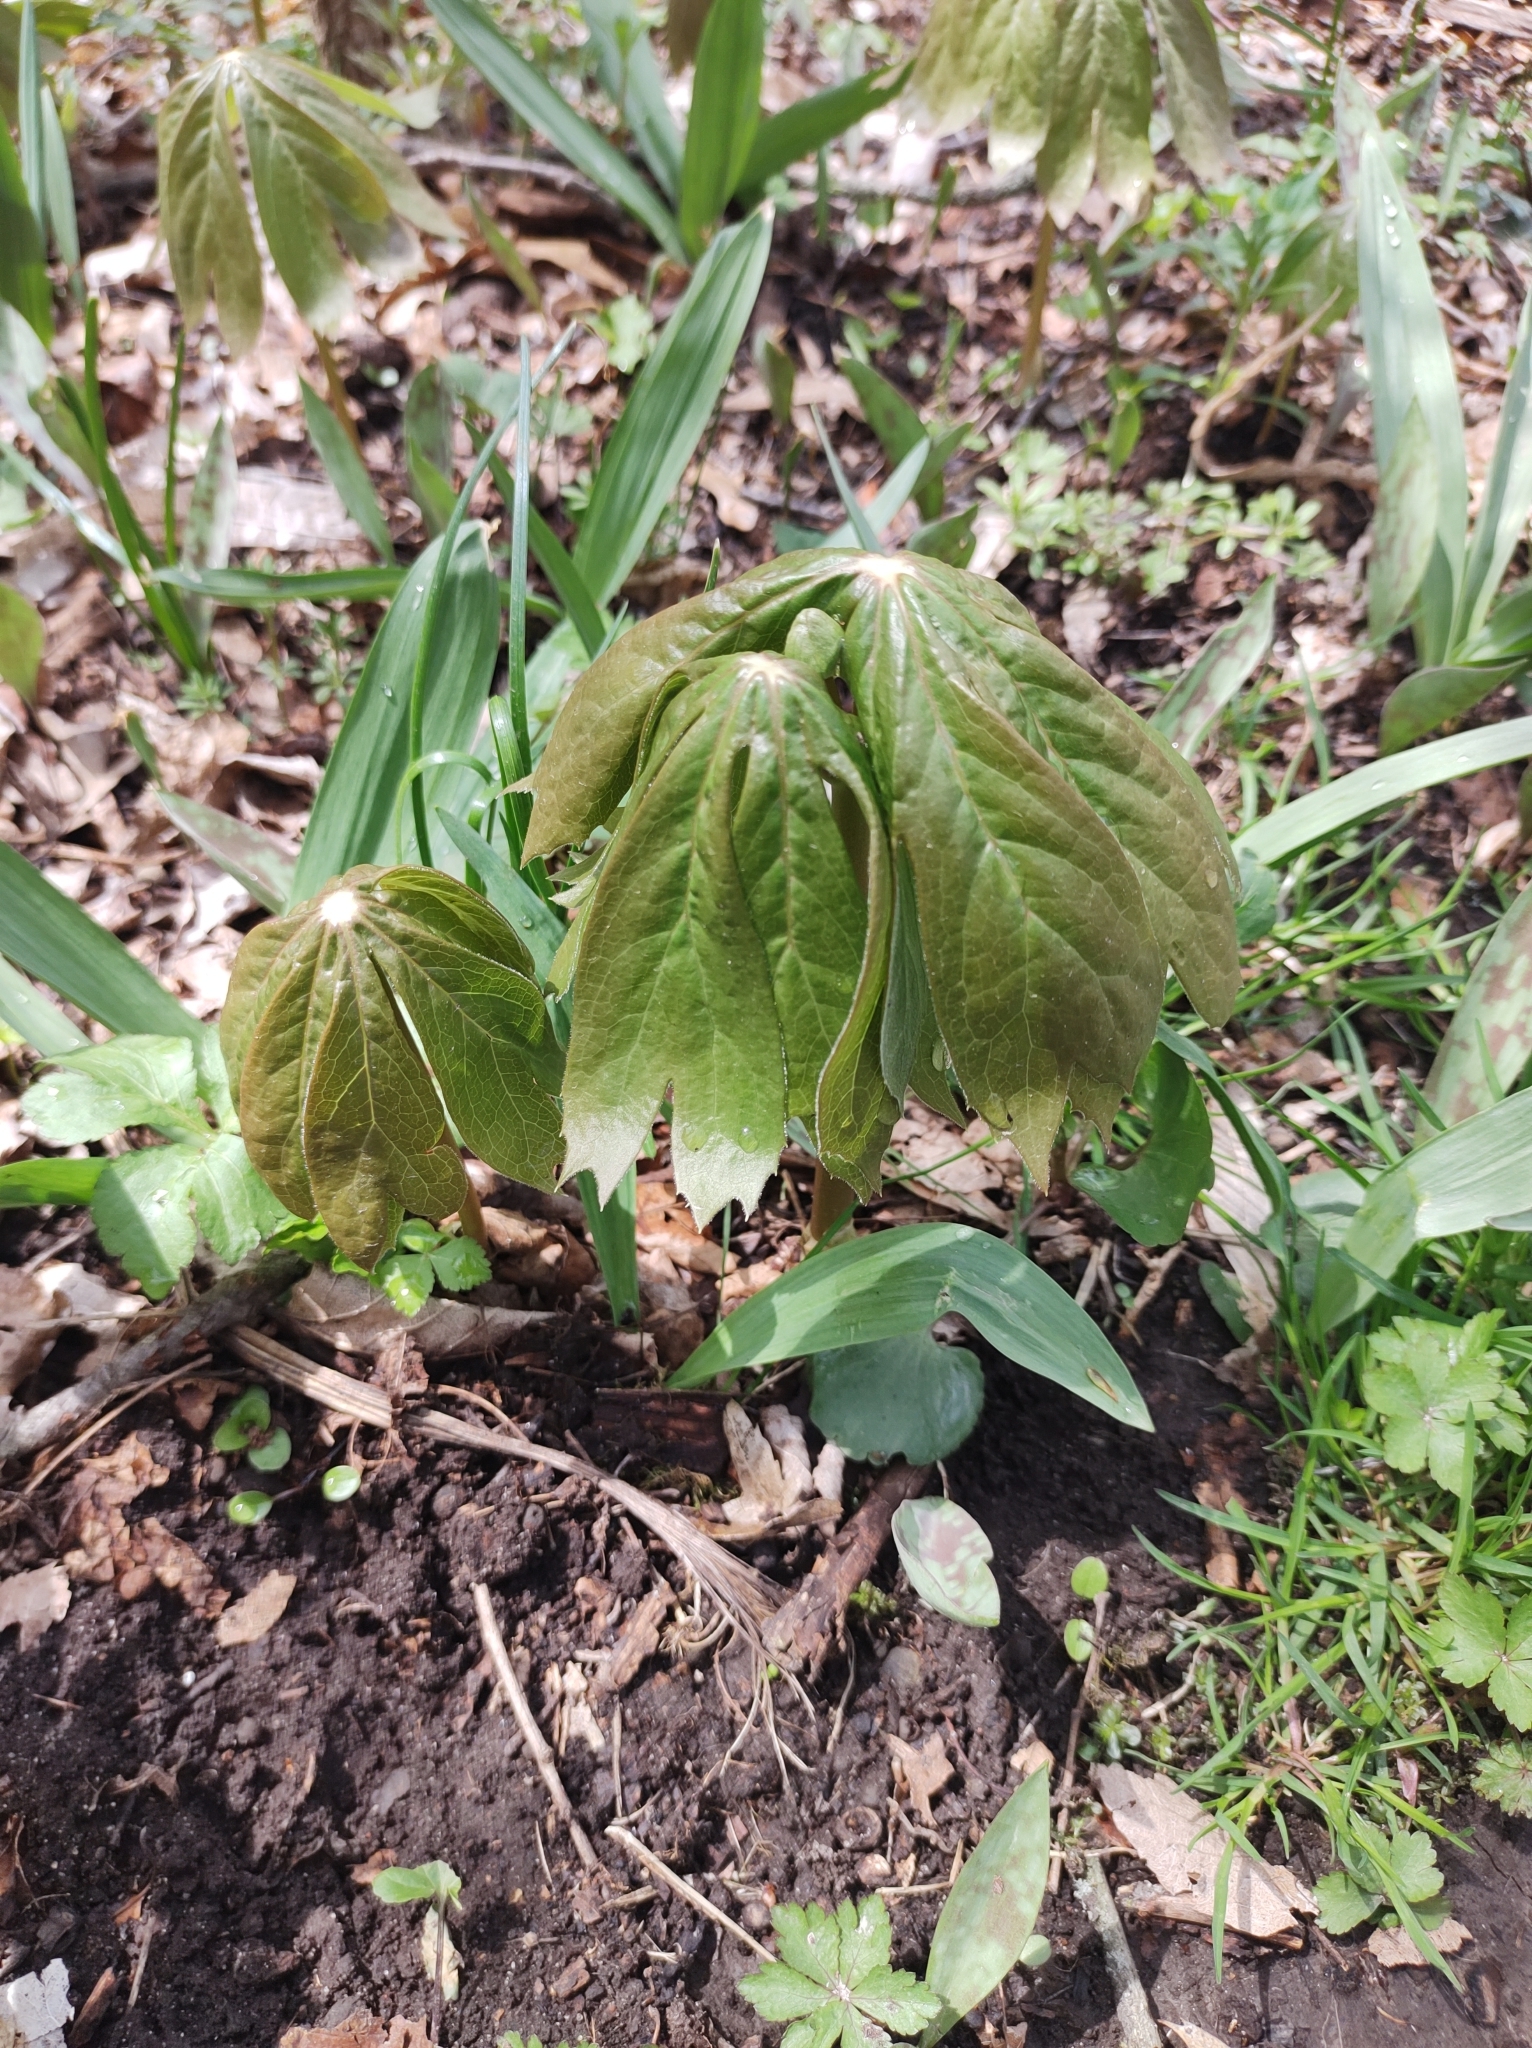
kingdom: Plantae
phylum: Tracheophyta
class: Magnoliopsida
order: Ranunculales
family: Berberidaceae
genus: Podophyllum
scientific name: Podophyllum peltatum
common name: Wild mandrake
